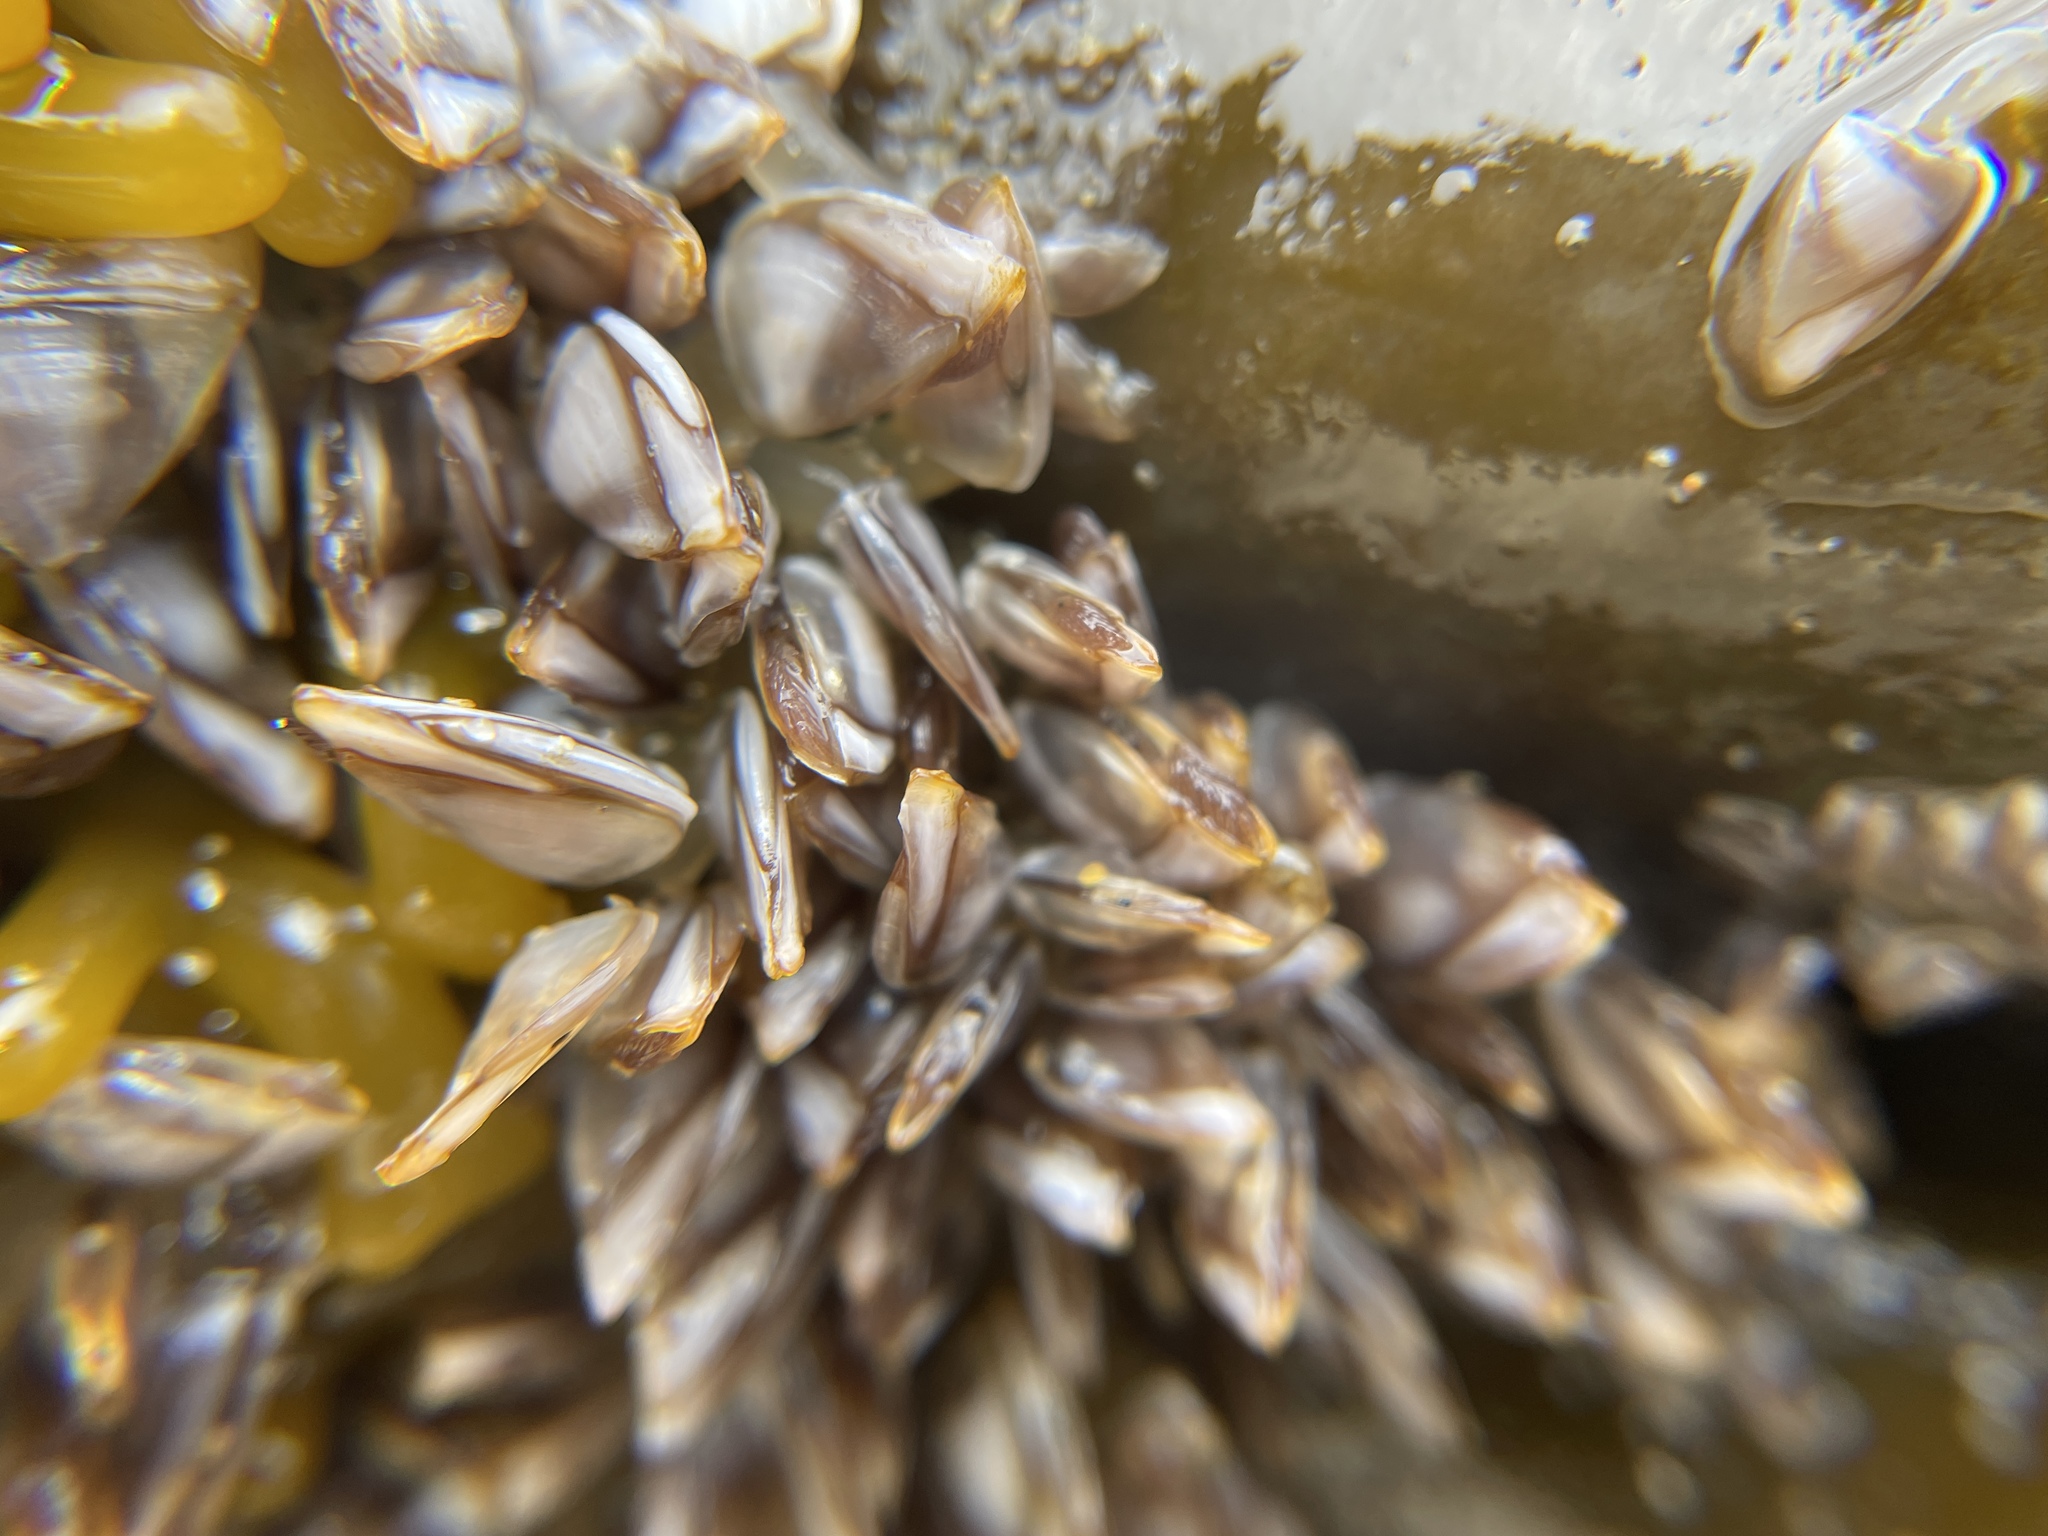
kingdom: Animalia
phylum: Arthropoda
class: Maxillopoda
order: Pedunculata
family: Lepadidae
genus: Lepas
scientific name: Lepas pacifica
